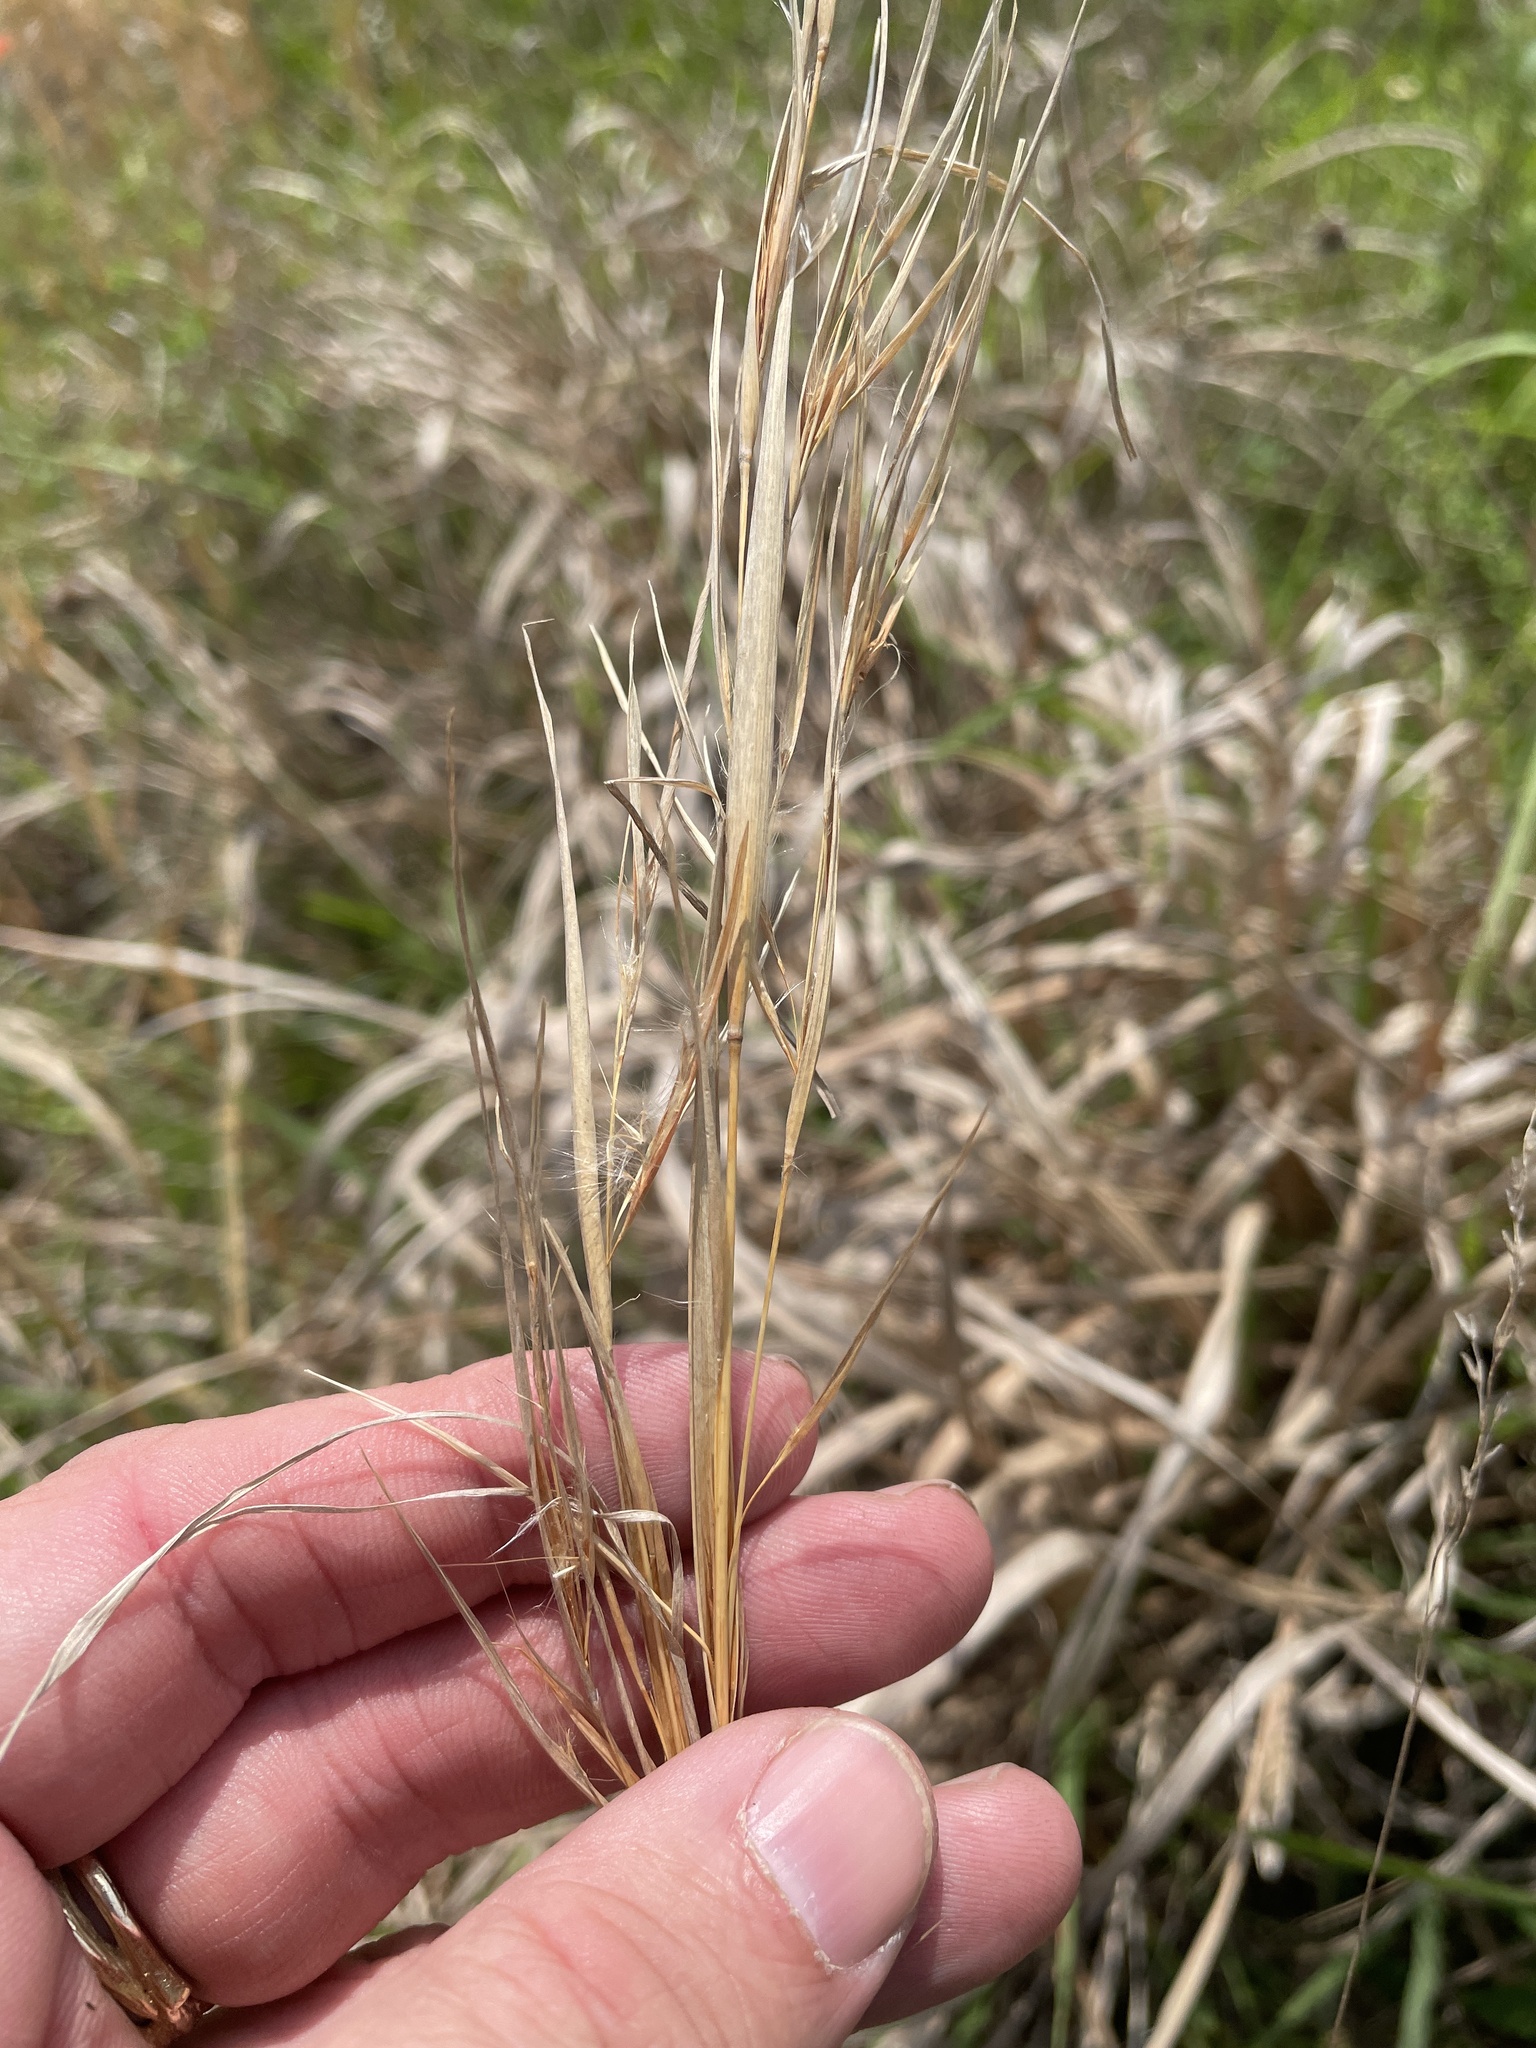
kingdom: Plantae
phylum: Tracheophyta
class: Liliopsida
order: Poales
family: Poaceae
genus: Andropogon
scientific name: Andropogon virginicus
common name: Broomsedge bluestem
